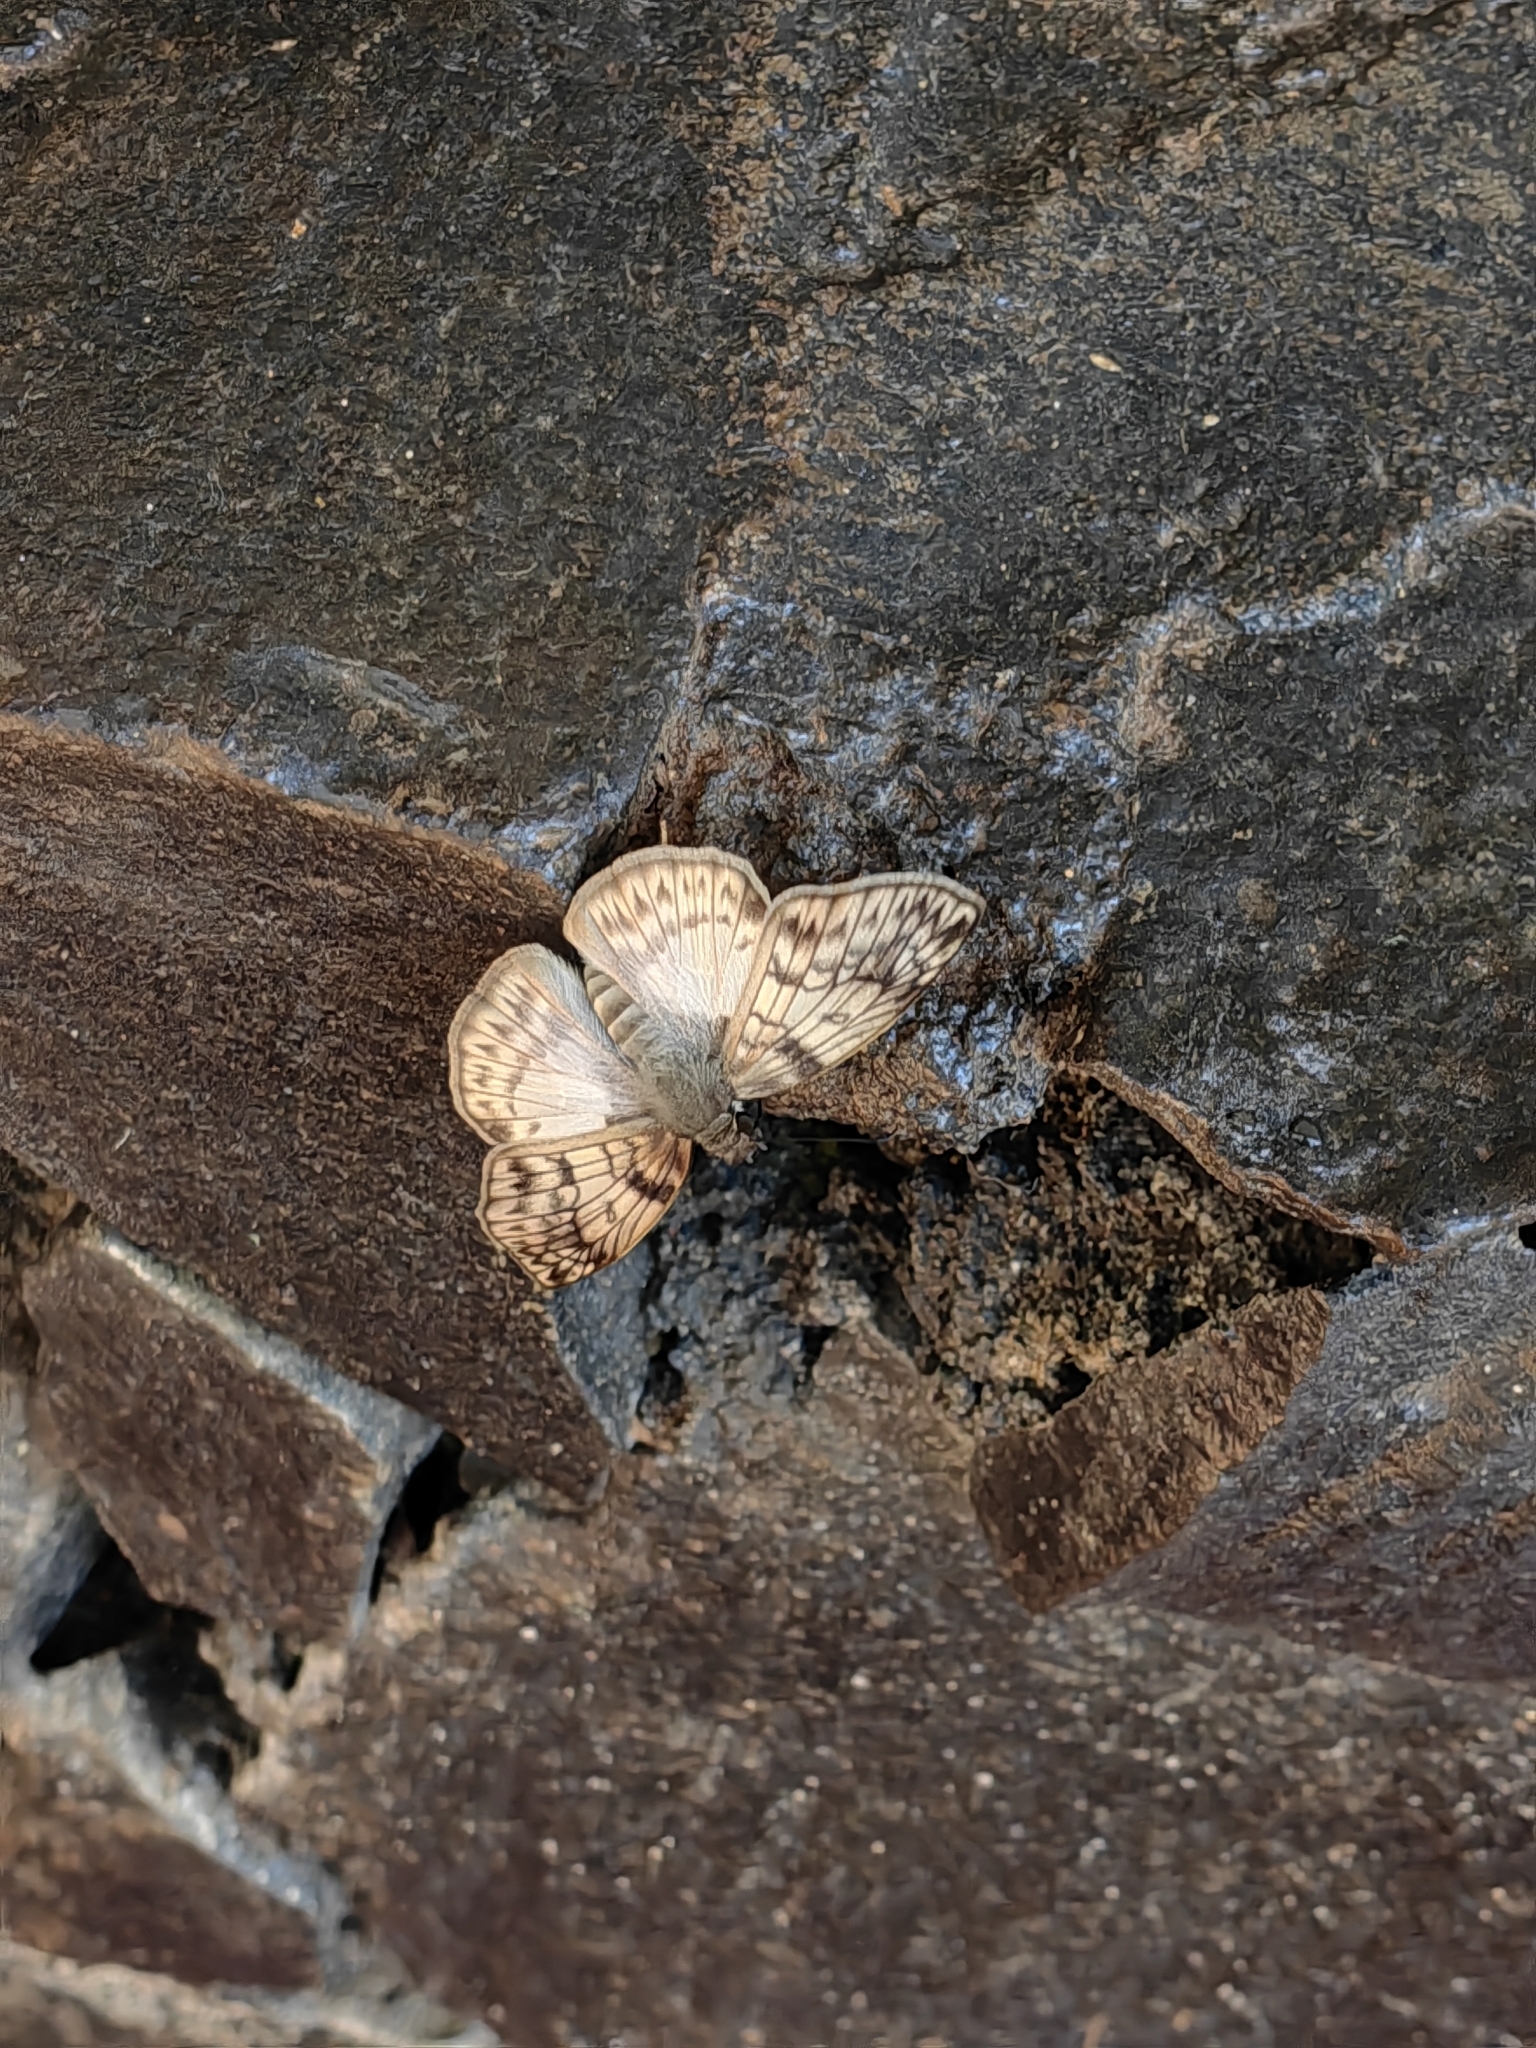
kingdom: Animalia
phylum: Arthropoda
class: Insecta
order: Lepidoptera
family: Hesperiidae
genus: Mylon
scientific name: Mylon maimon
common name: Common mylon
